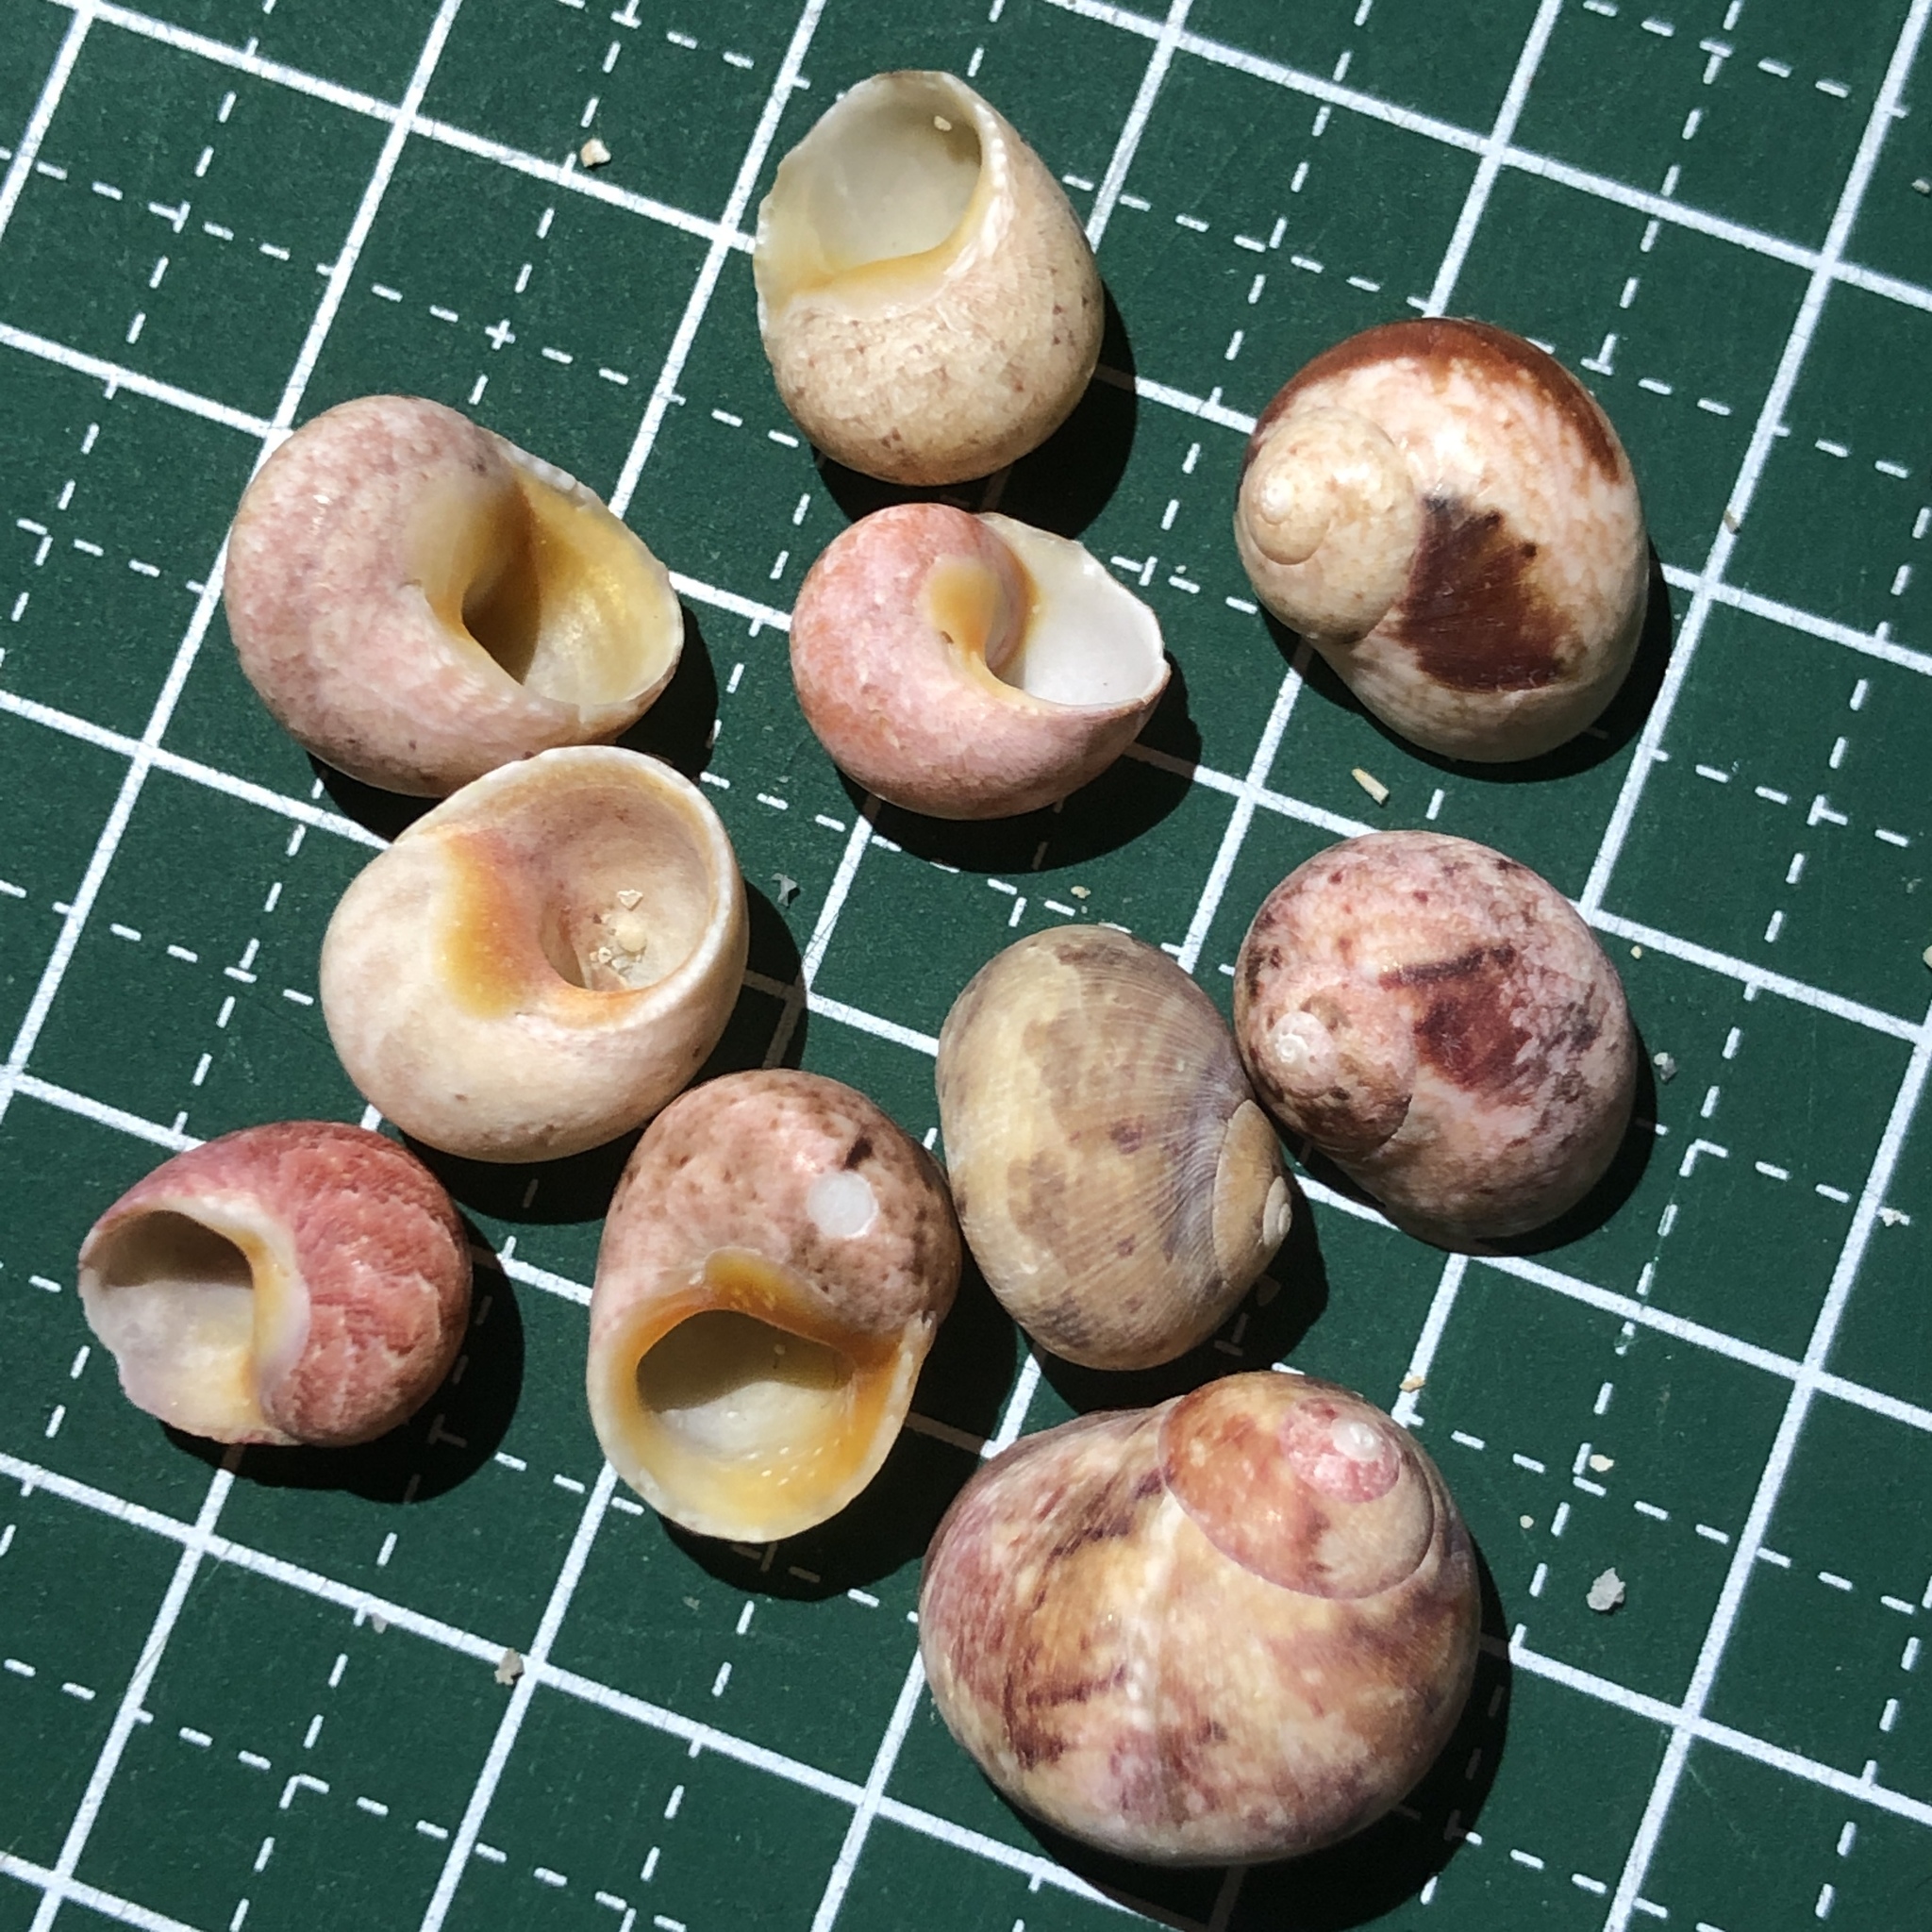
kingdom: Animalia
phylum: Mollusca
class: Gastropoda
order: Trochida
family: Trochidae
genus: Chrysostoma
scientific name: Chrysostoma paradoxum
